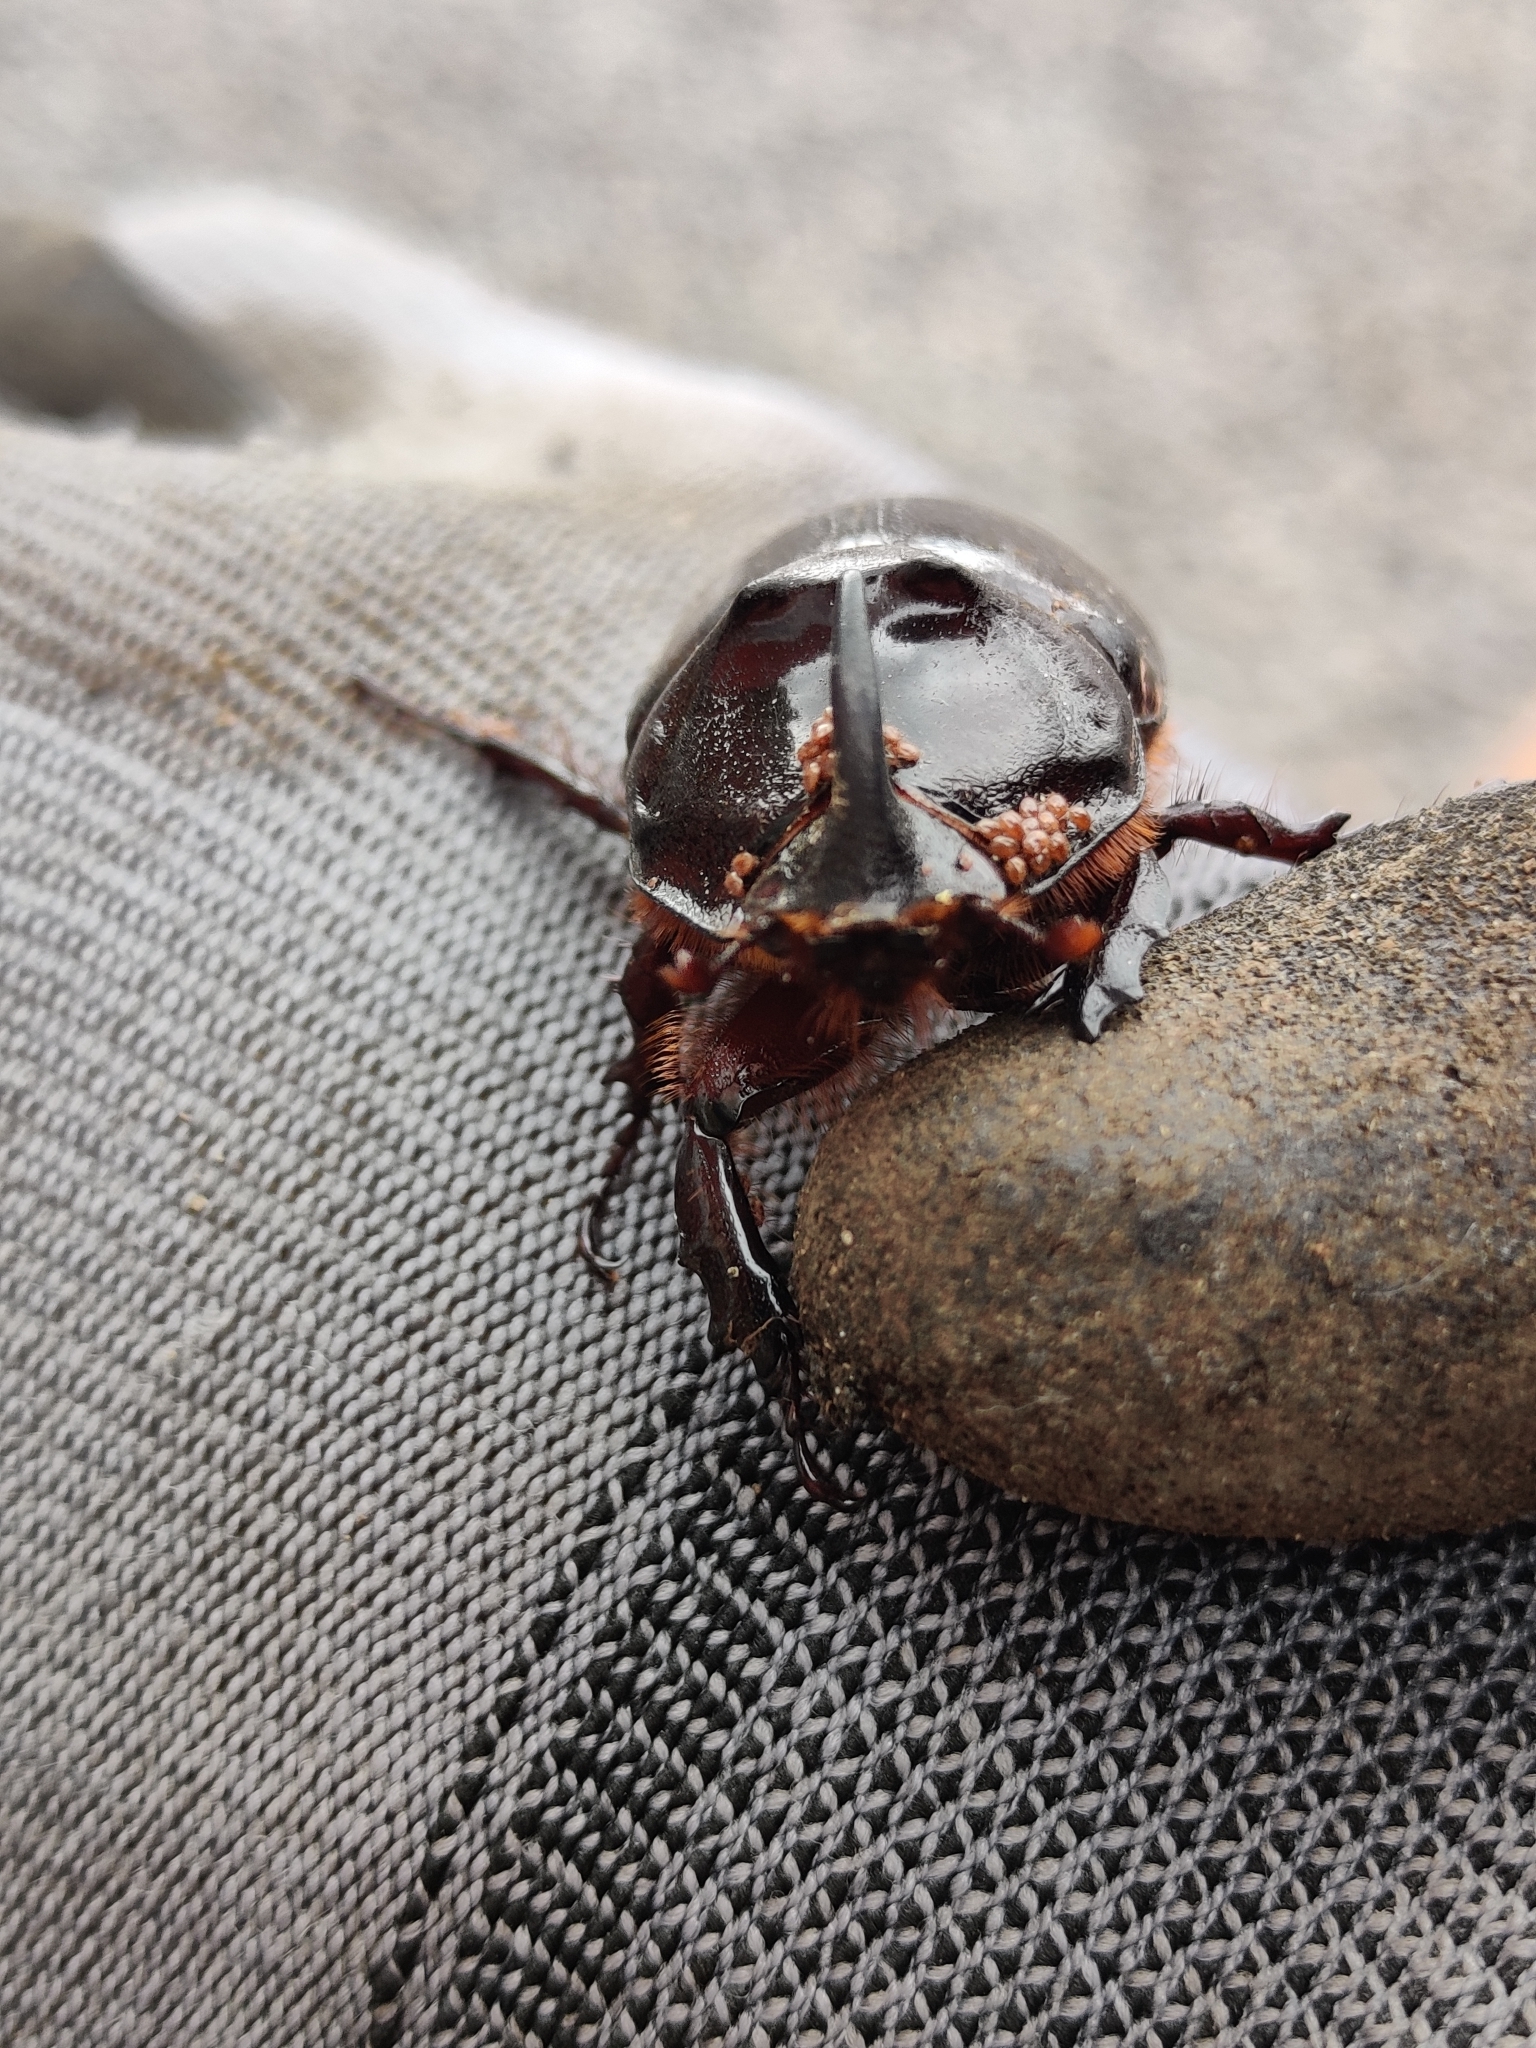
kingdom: Animalia
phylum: Arthropoda
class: Insecta
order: Coleoptera
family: Scarabaeidae
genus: Oryctes
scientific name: Oryctes nasicornis
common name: European rhinoceros beetle
